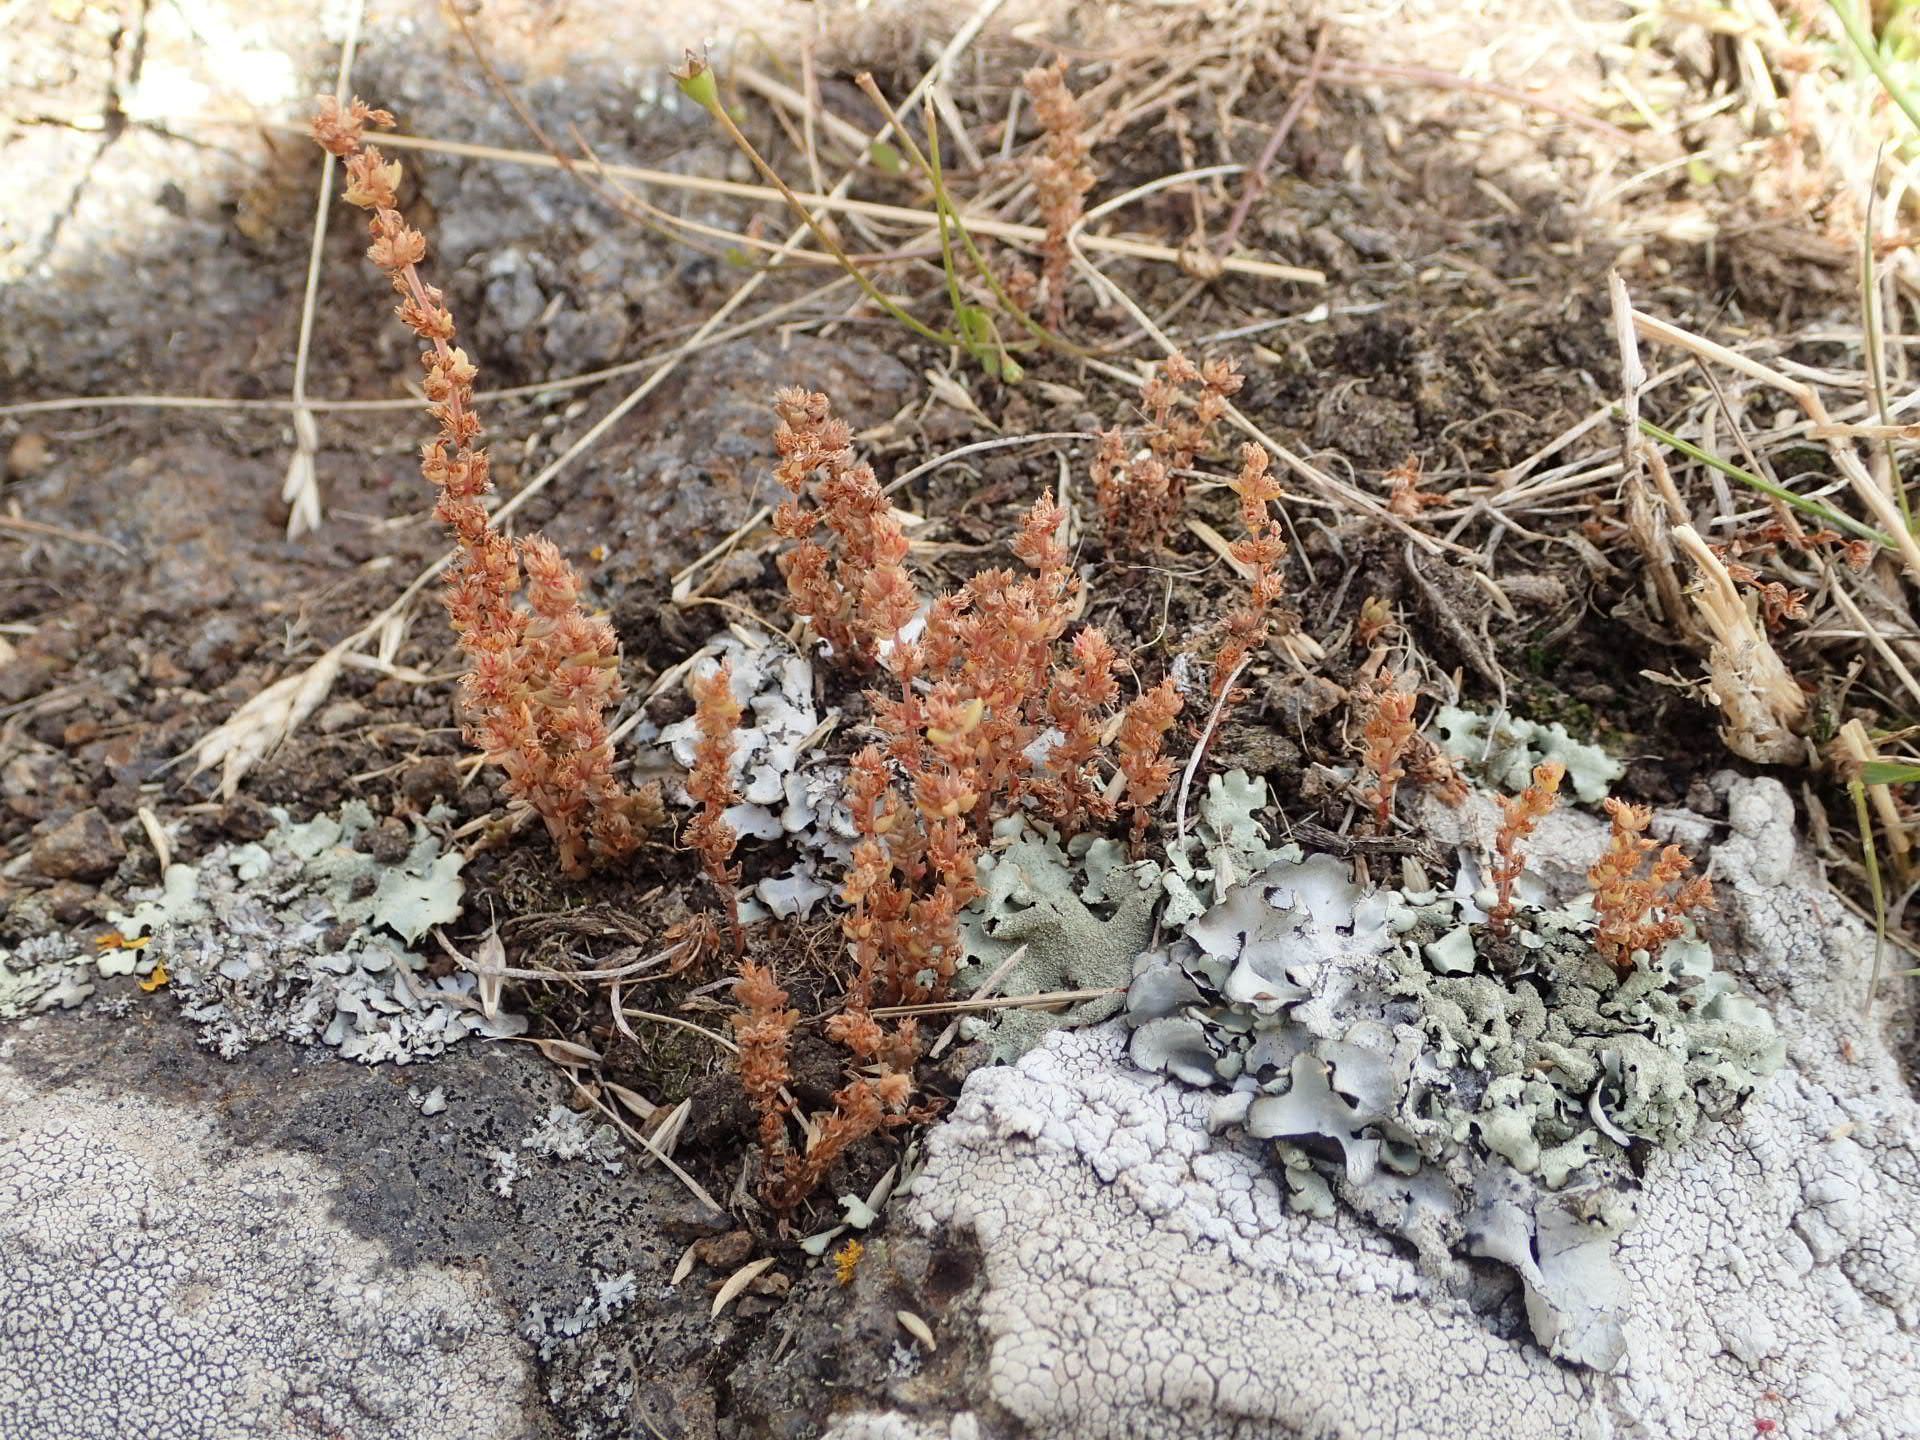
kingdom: Plantae
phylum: Tracheophyta
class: Magnoliopsida
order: Saxifragales
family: Crassulaceae
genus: Crassula
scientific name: Crassula sieberiana
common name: Siberian pygmyweed
